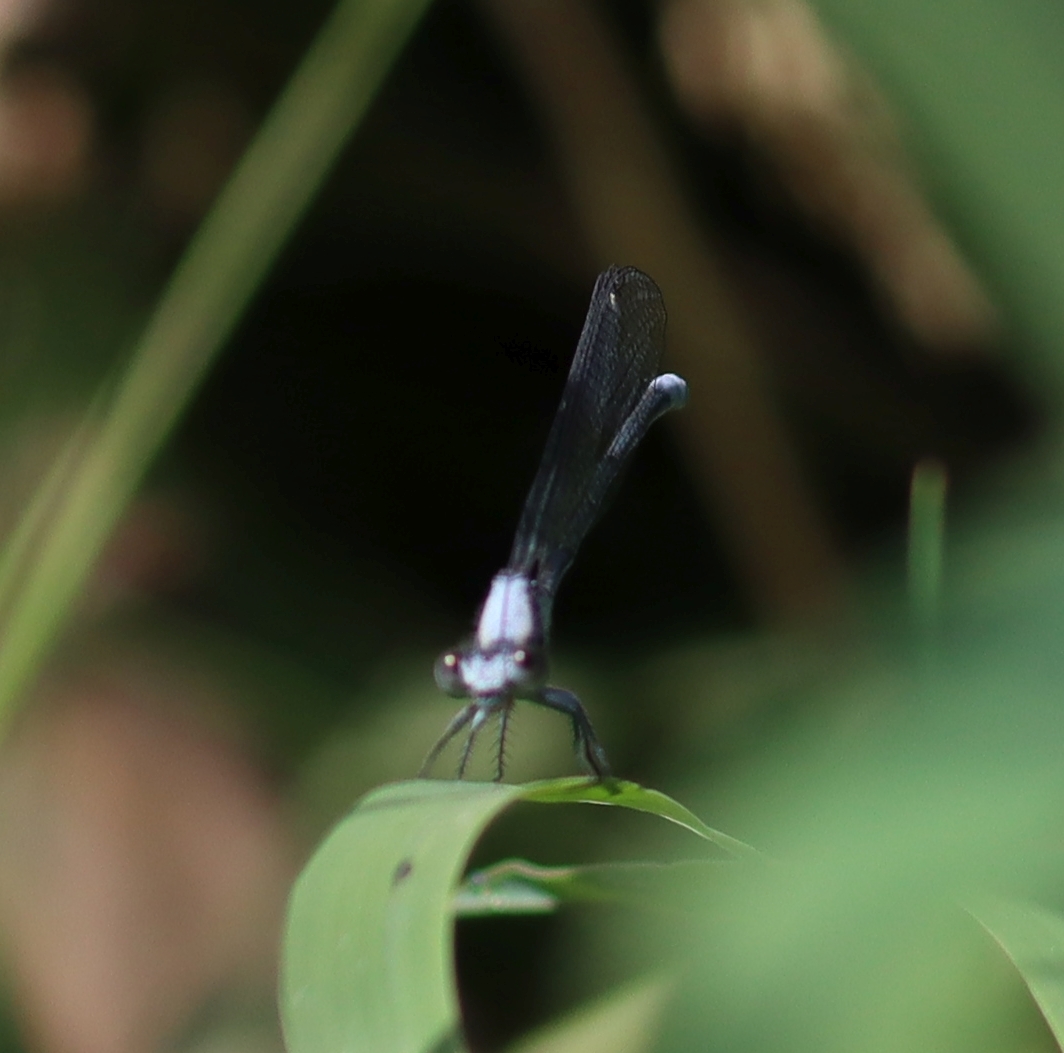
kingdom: Animalia
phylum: Arthropoda
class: Insecta
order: Odonata
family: Coenagrionidae
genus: Argia
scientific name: Argia moesta
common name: Powdered dancer
